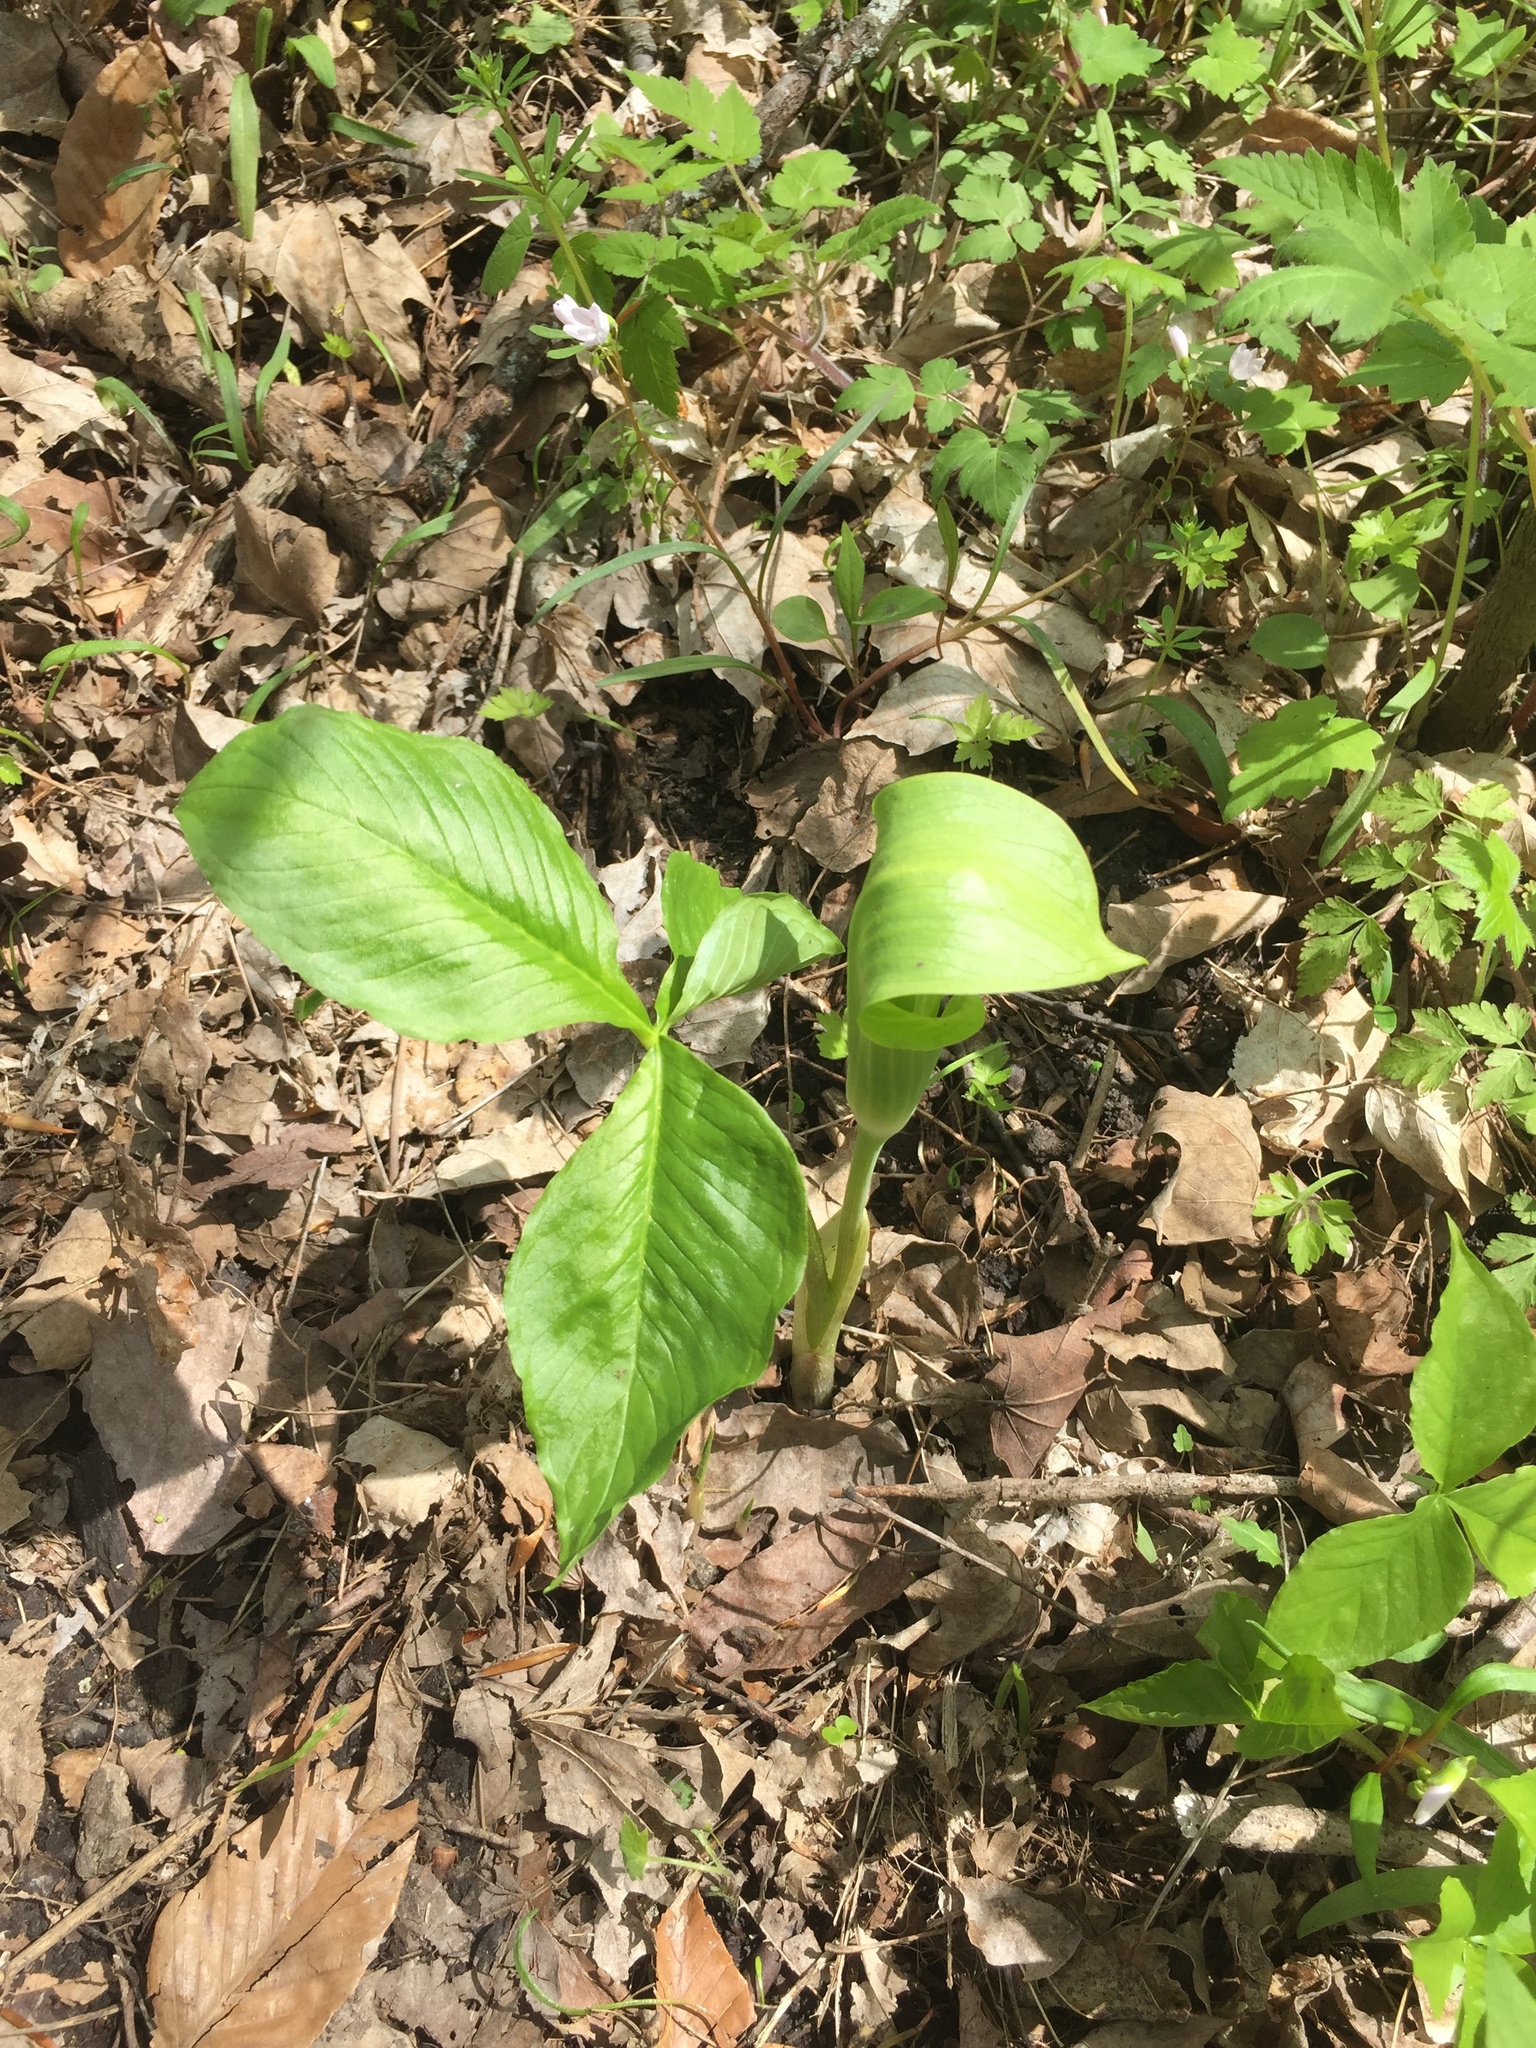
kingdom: Plantae
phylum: Tracheophyta
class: Liliopsida
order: Alismatales
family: Araceae
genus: Arisaema
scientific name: Arisaema triphyllum
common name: Jack-in-the-pulpit
